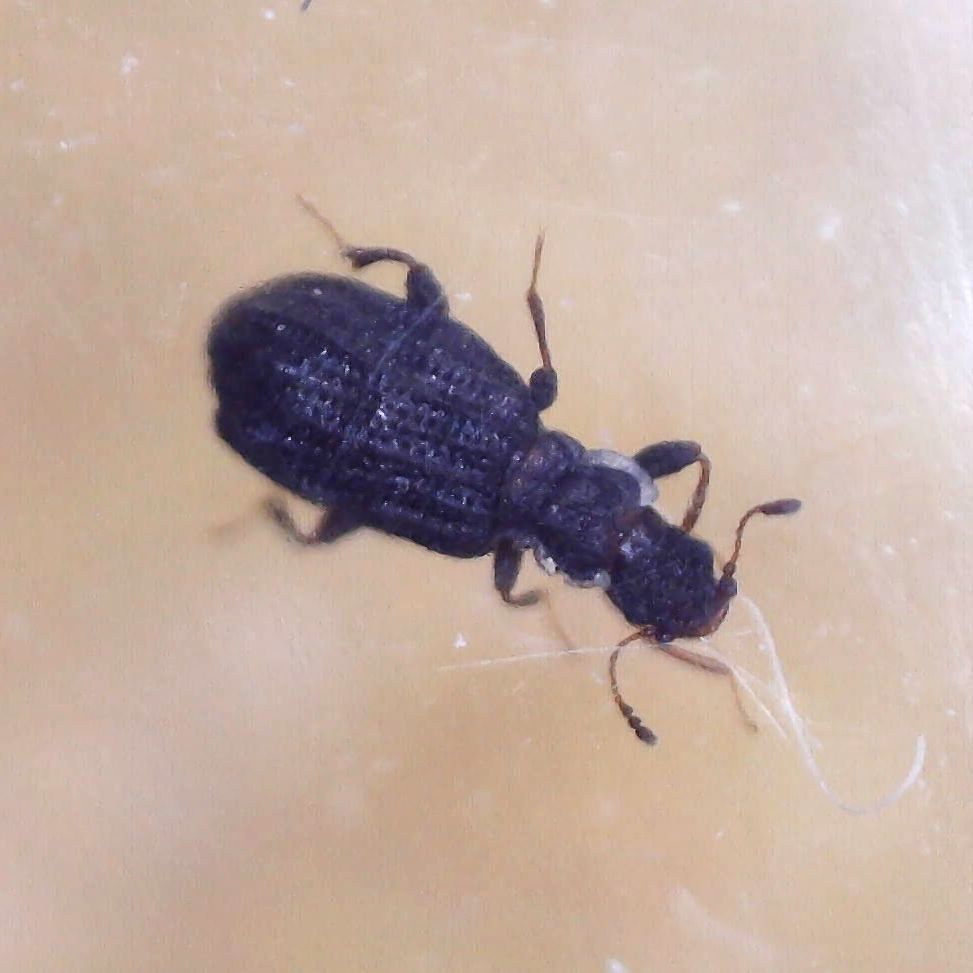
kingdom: Animalia
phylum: Arthropoda
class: Insecta
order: Coleoptera
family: Latridiidae
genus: Cartodere
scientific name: Cartodere nodifer
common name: Humpbacked minute scavenger beetle
